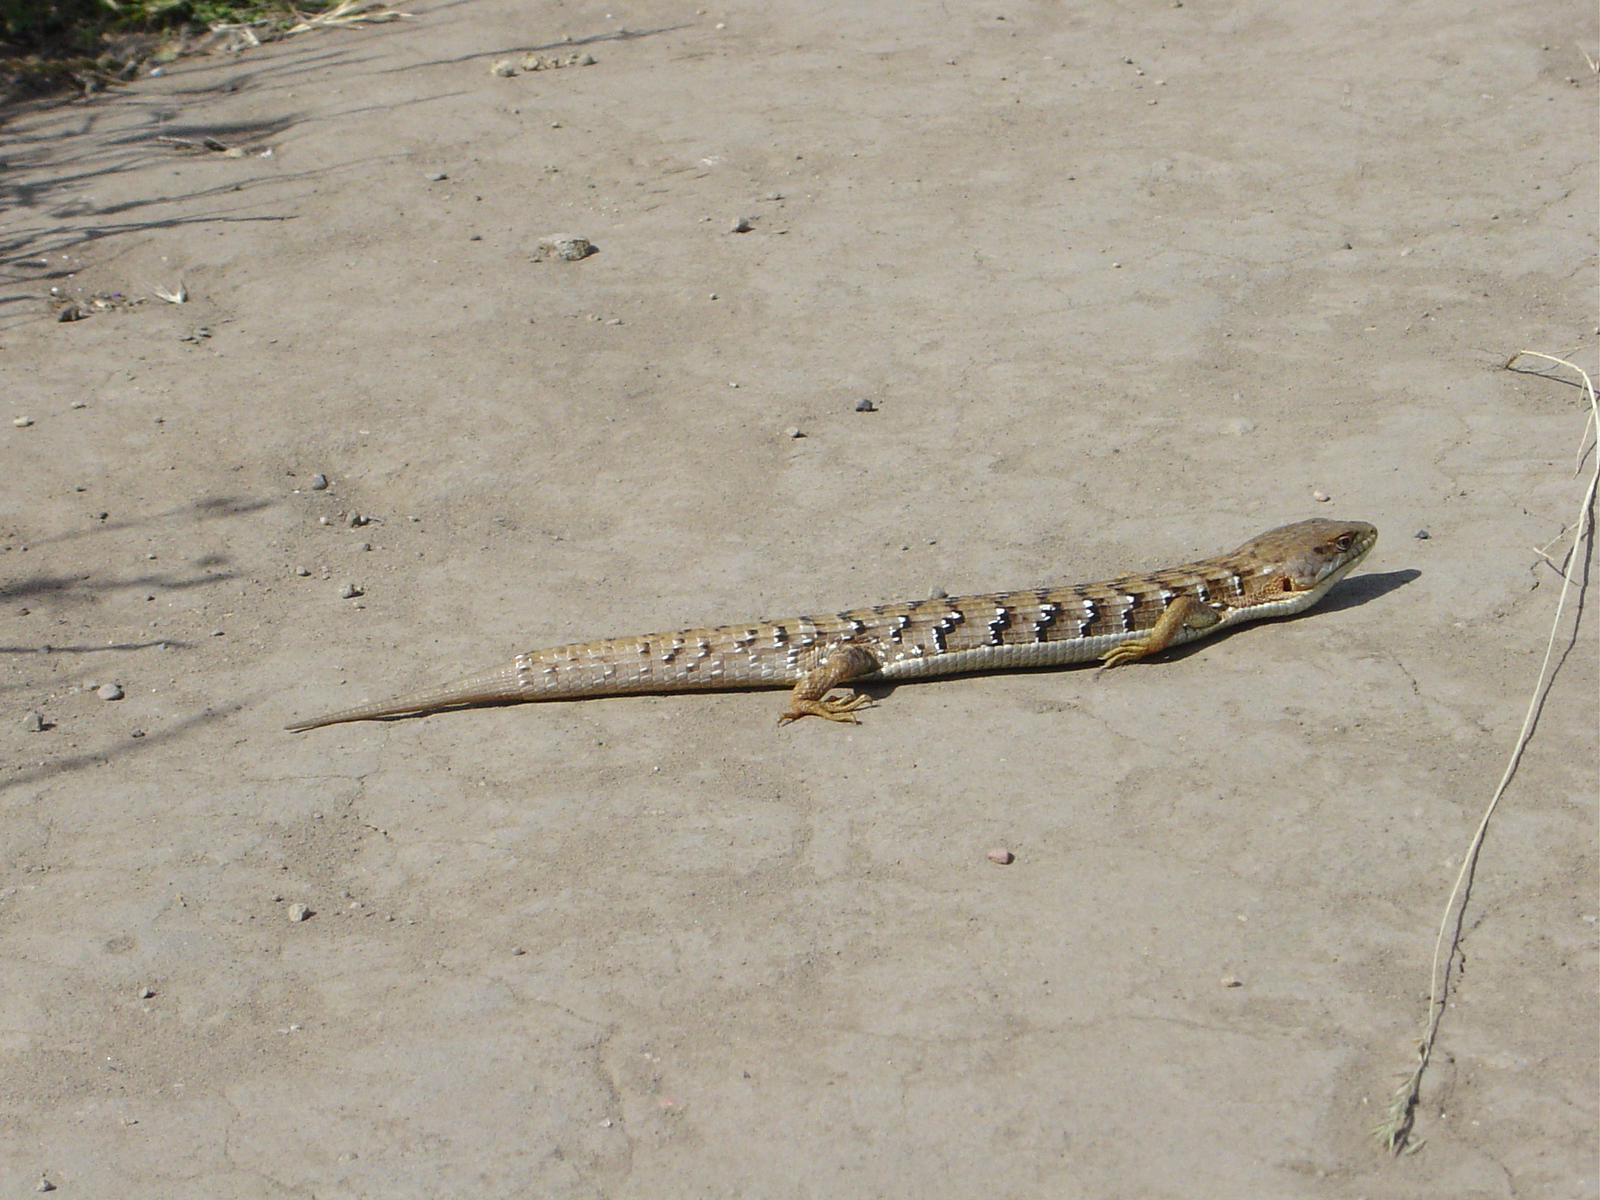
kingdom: Animalia
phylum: Chordata
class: Squamata
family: Anguidae
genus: Elgaria
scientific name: Elgaria multicarinata
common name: Southern alligator lizard
